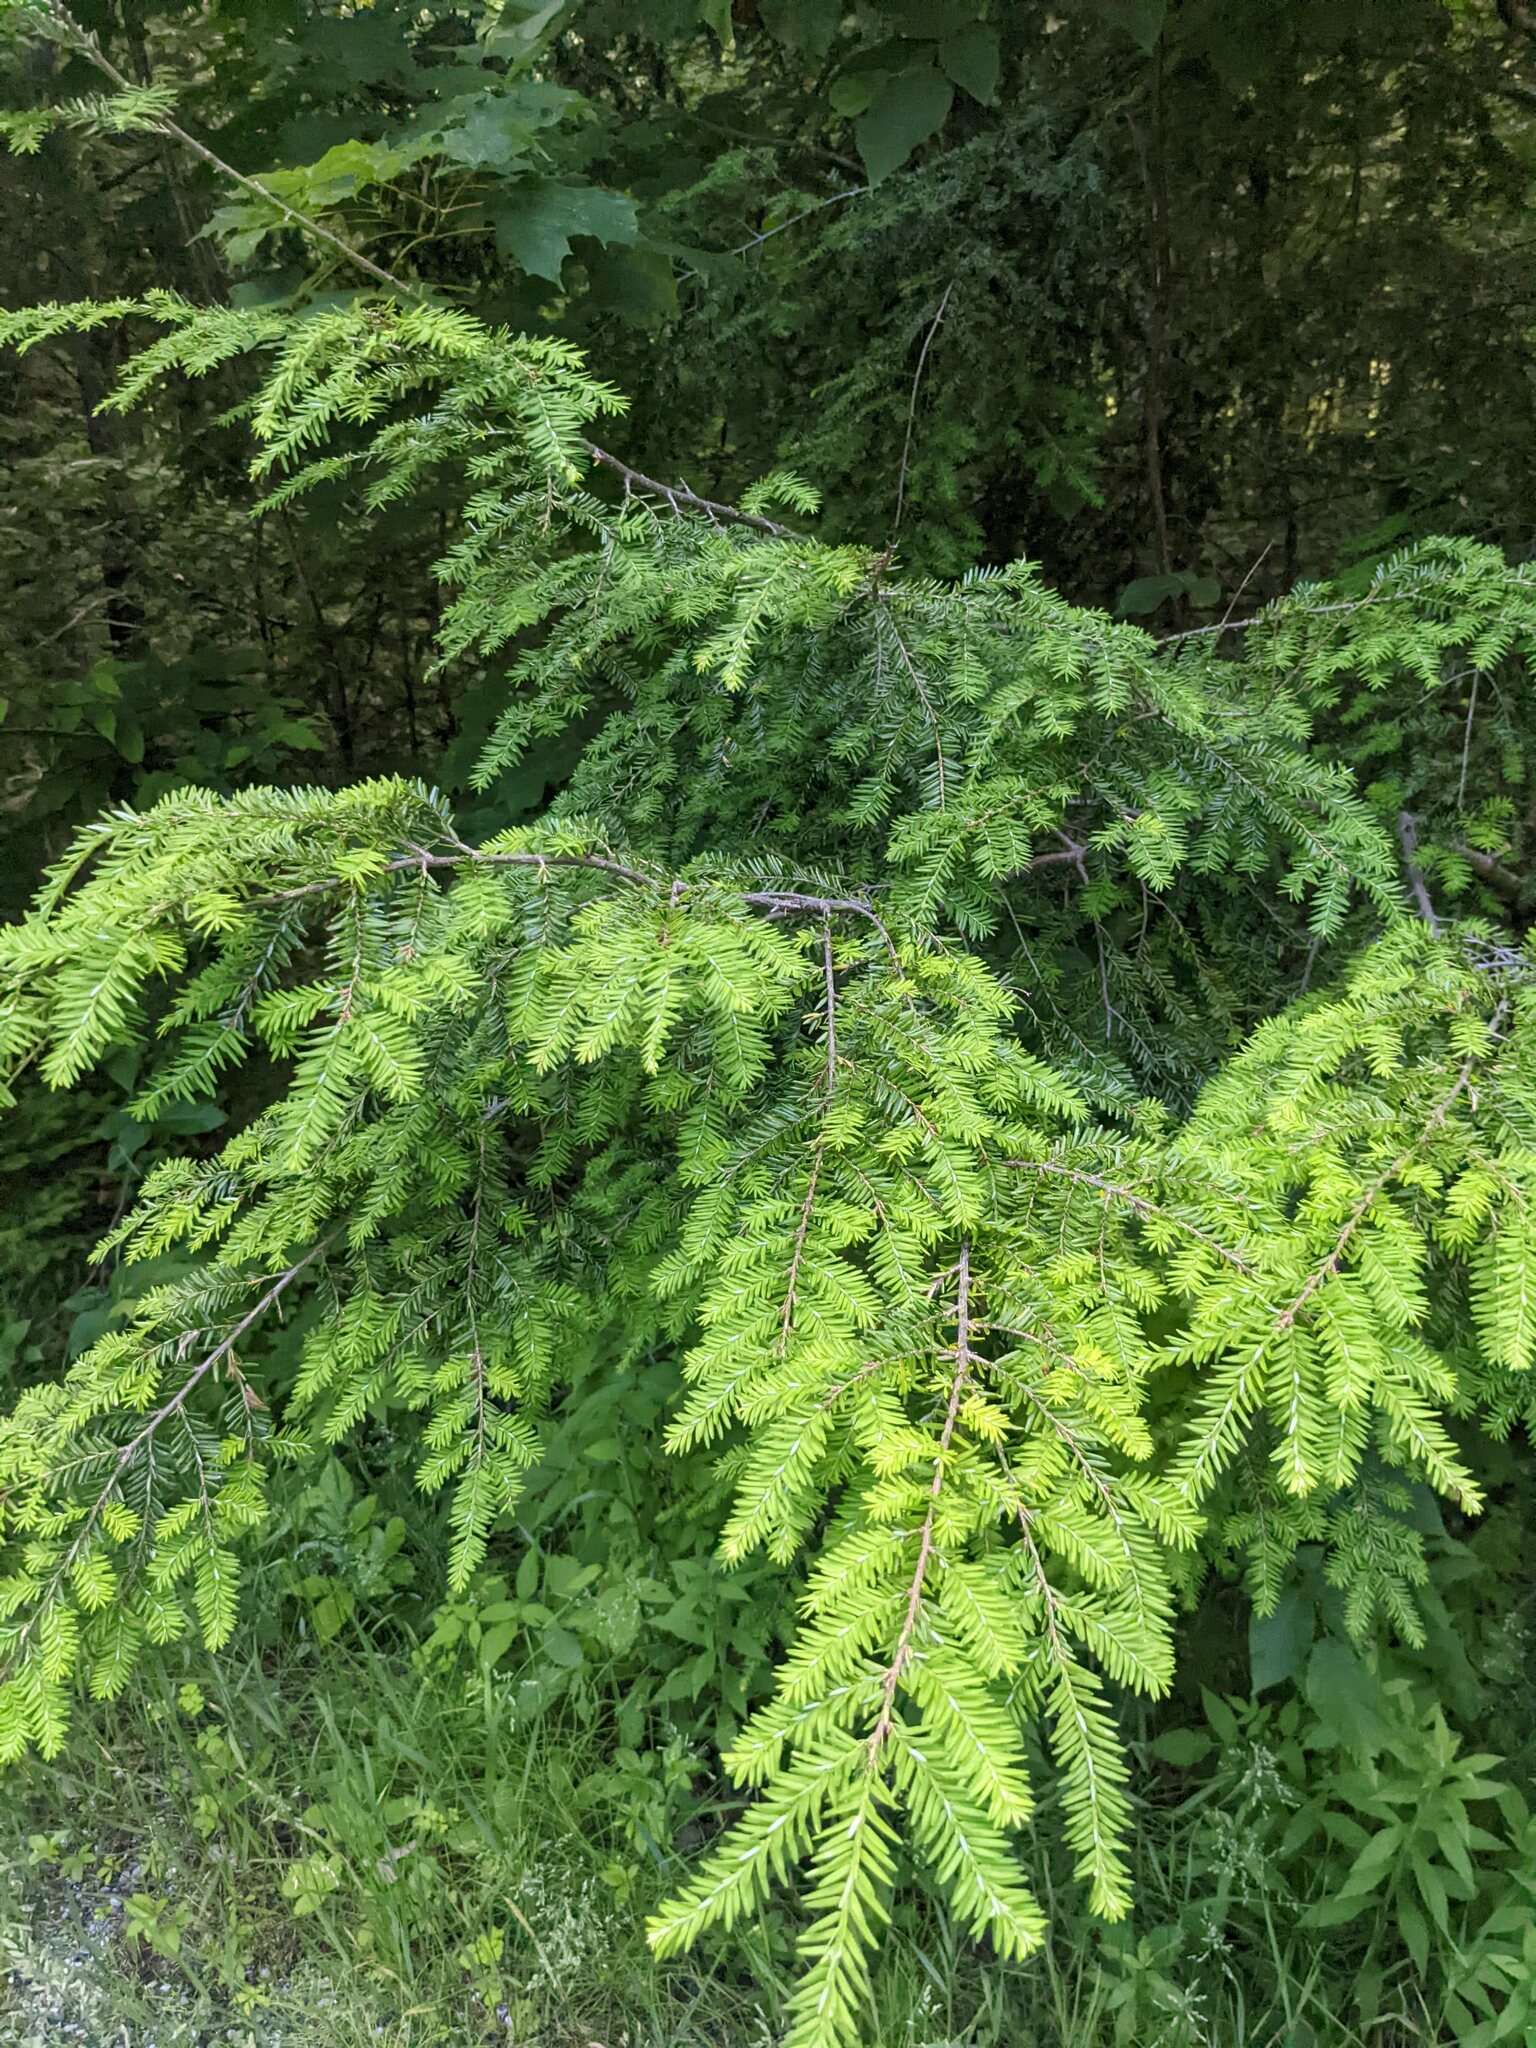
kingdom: Plantae
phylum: Tracheophyta
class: Pinopsida
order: Pinales
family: Pinaceae
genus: Tsuga
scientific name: Tsuga canadensis
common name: Eastern hemlock
